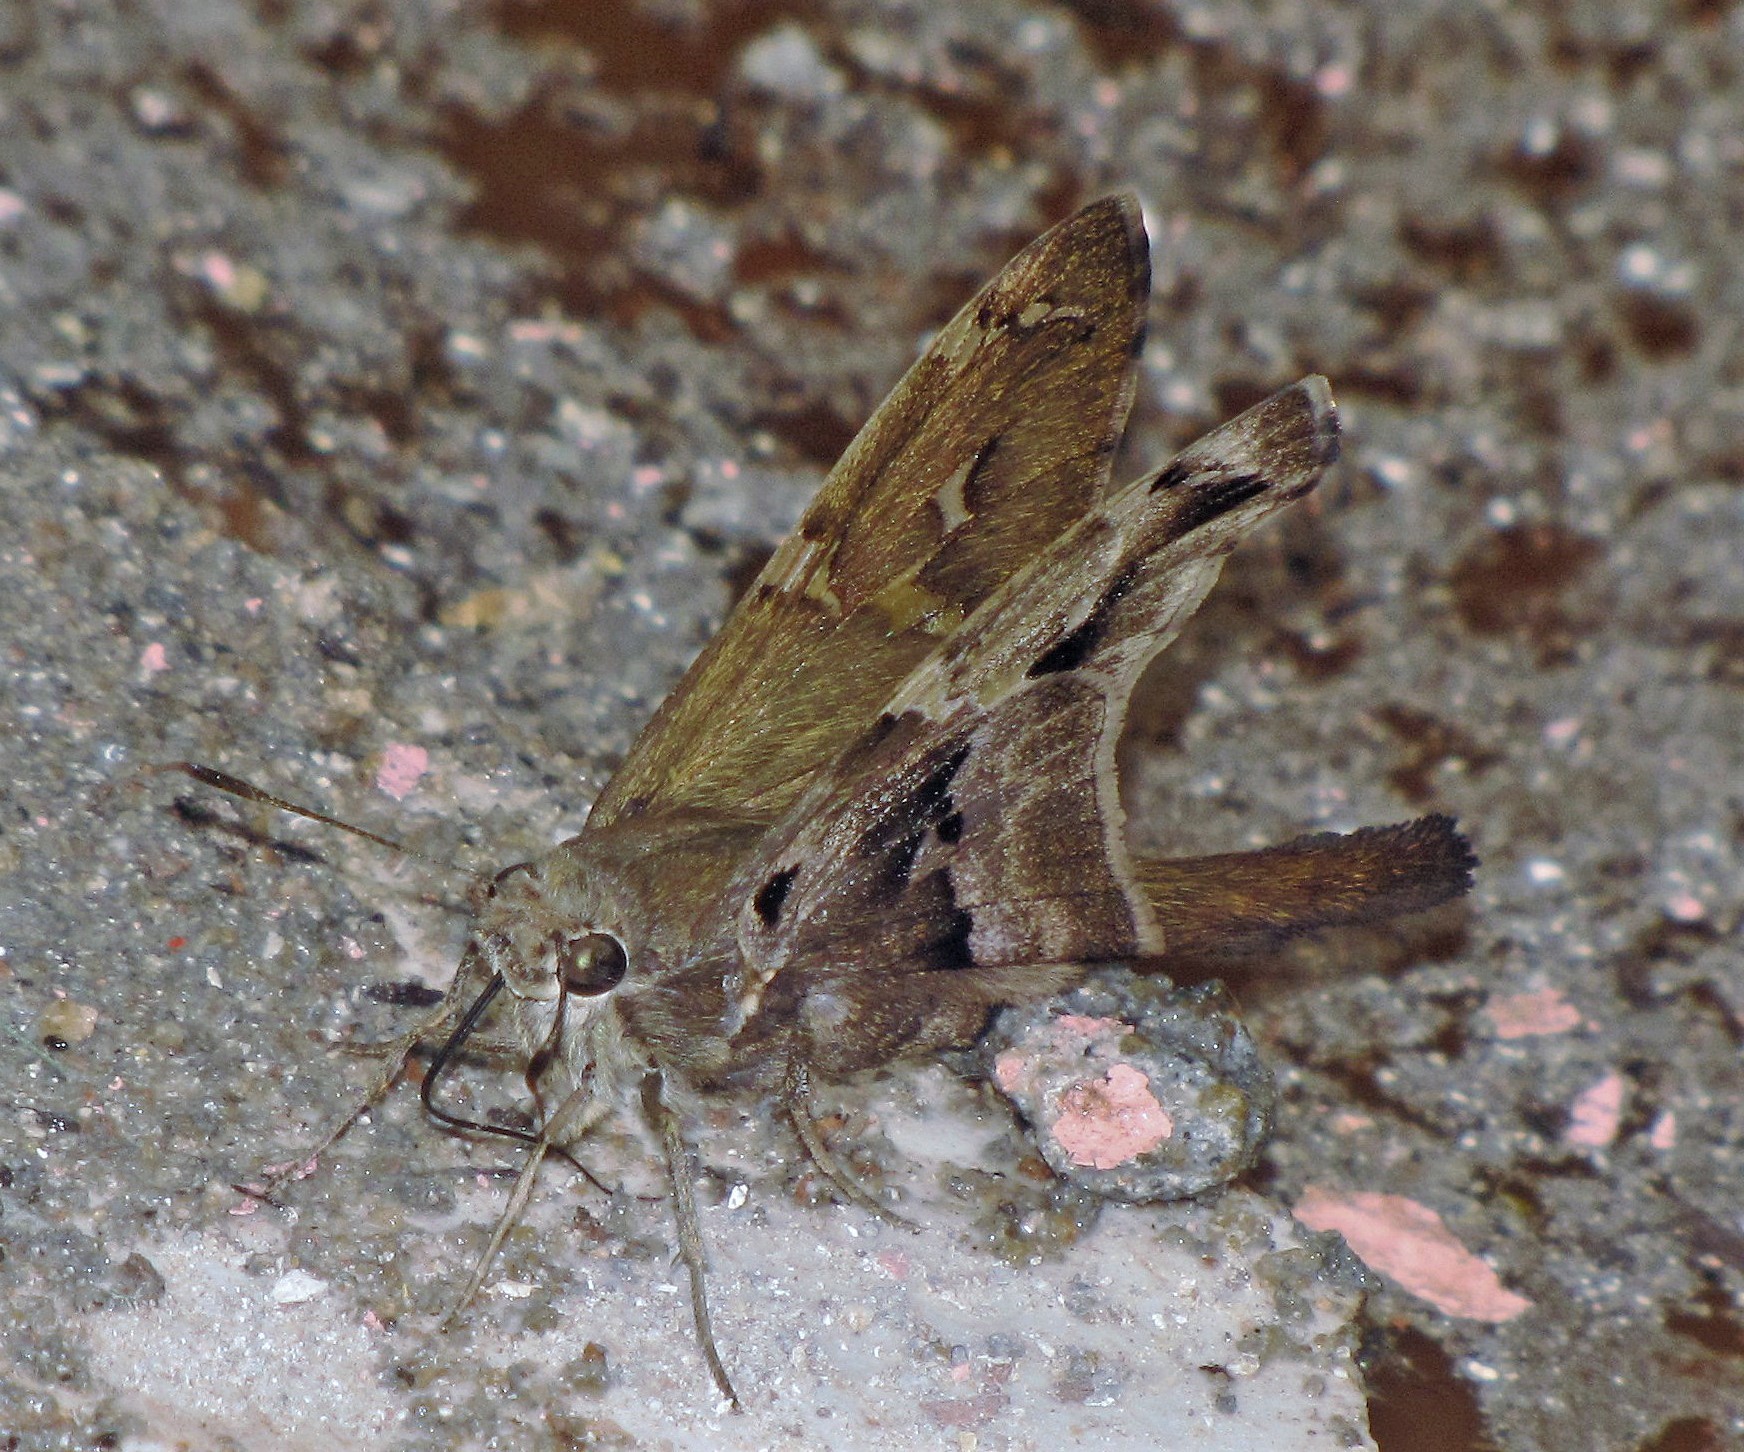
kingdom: Animalia
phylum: Arthropoda
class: Insecta
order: Lepidoptera
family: Hesperiidae
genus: Aguna
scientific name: Aguna megaeles
